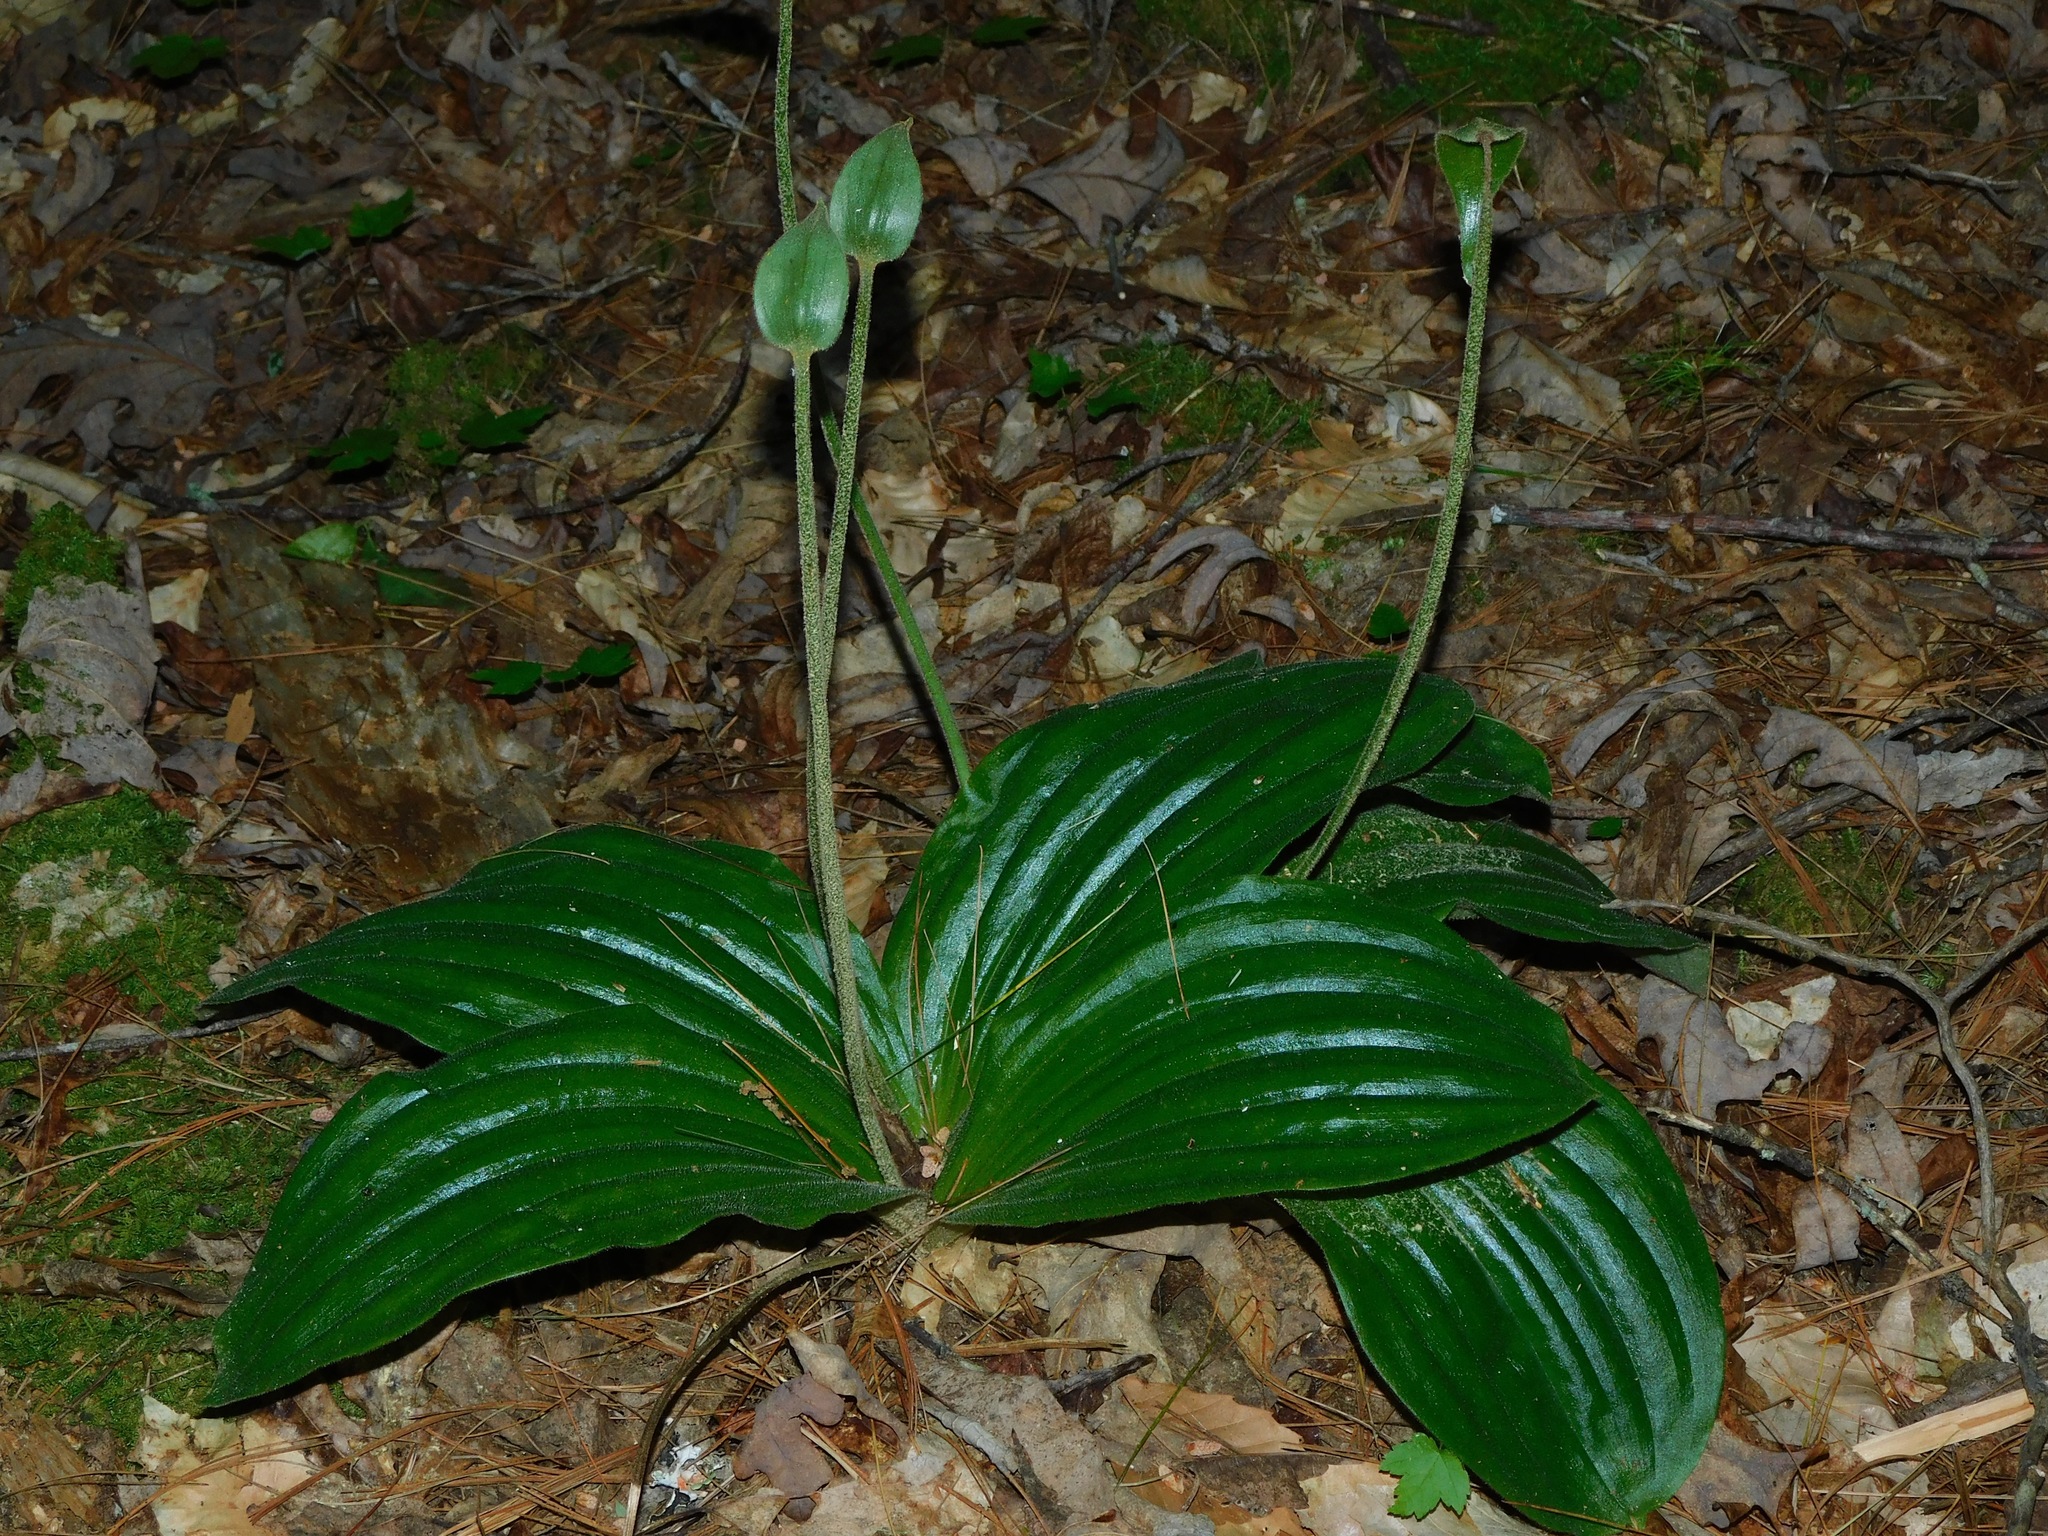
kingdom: Plantae
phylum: Tracheophyta
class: Liliopsida
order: Asparagales
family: Orchidaceae
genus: Cypripedium
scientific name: Cypripedium acaule
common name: Pink lady's-slipper
